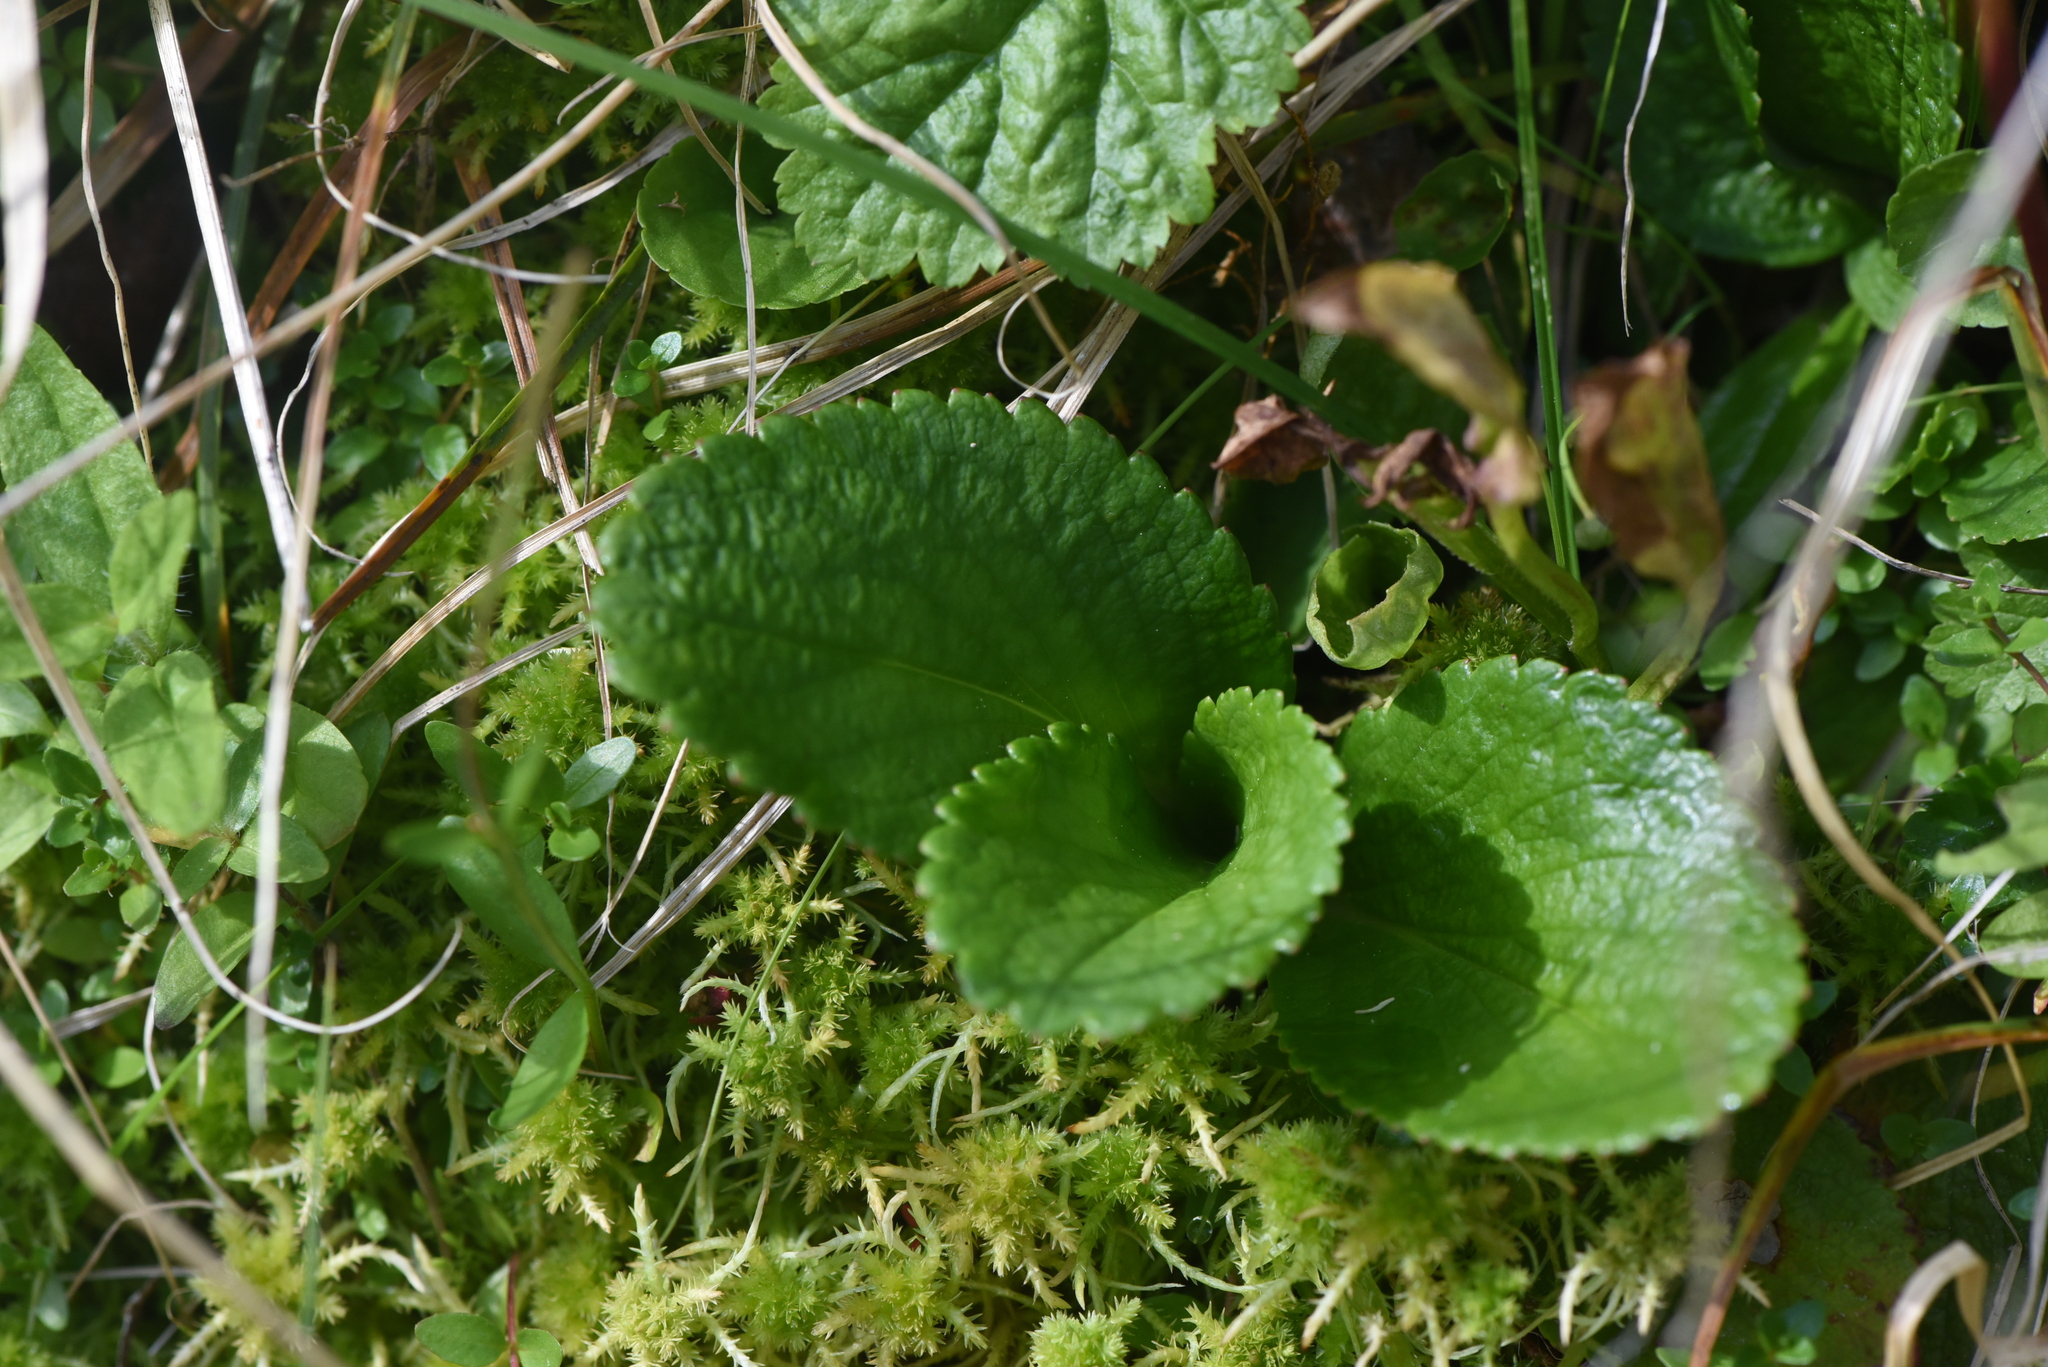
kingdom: Plantae
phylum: Tracheophyta
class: Magnoliopsida
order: Saxifragales
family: Saxifragaceae
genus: Leptarrhena
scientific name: Leptarrhena pyrolifolia
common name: Leatherleaf-saxifrage
